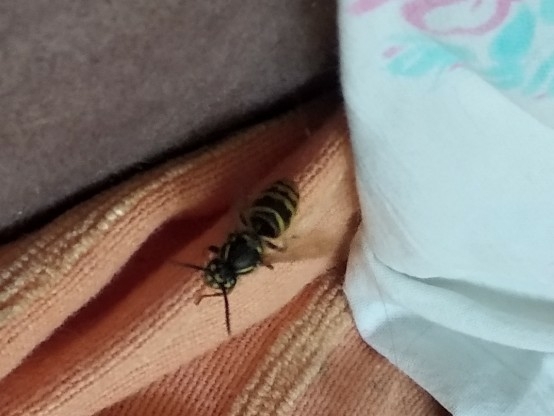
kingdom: Animalia
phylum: Arthropoda
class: Insecta
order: Hymenoptera
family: Vespidae
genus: Vespula
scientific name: Vespula vulgaris
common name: Common wasp
